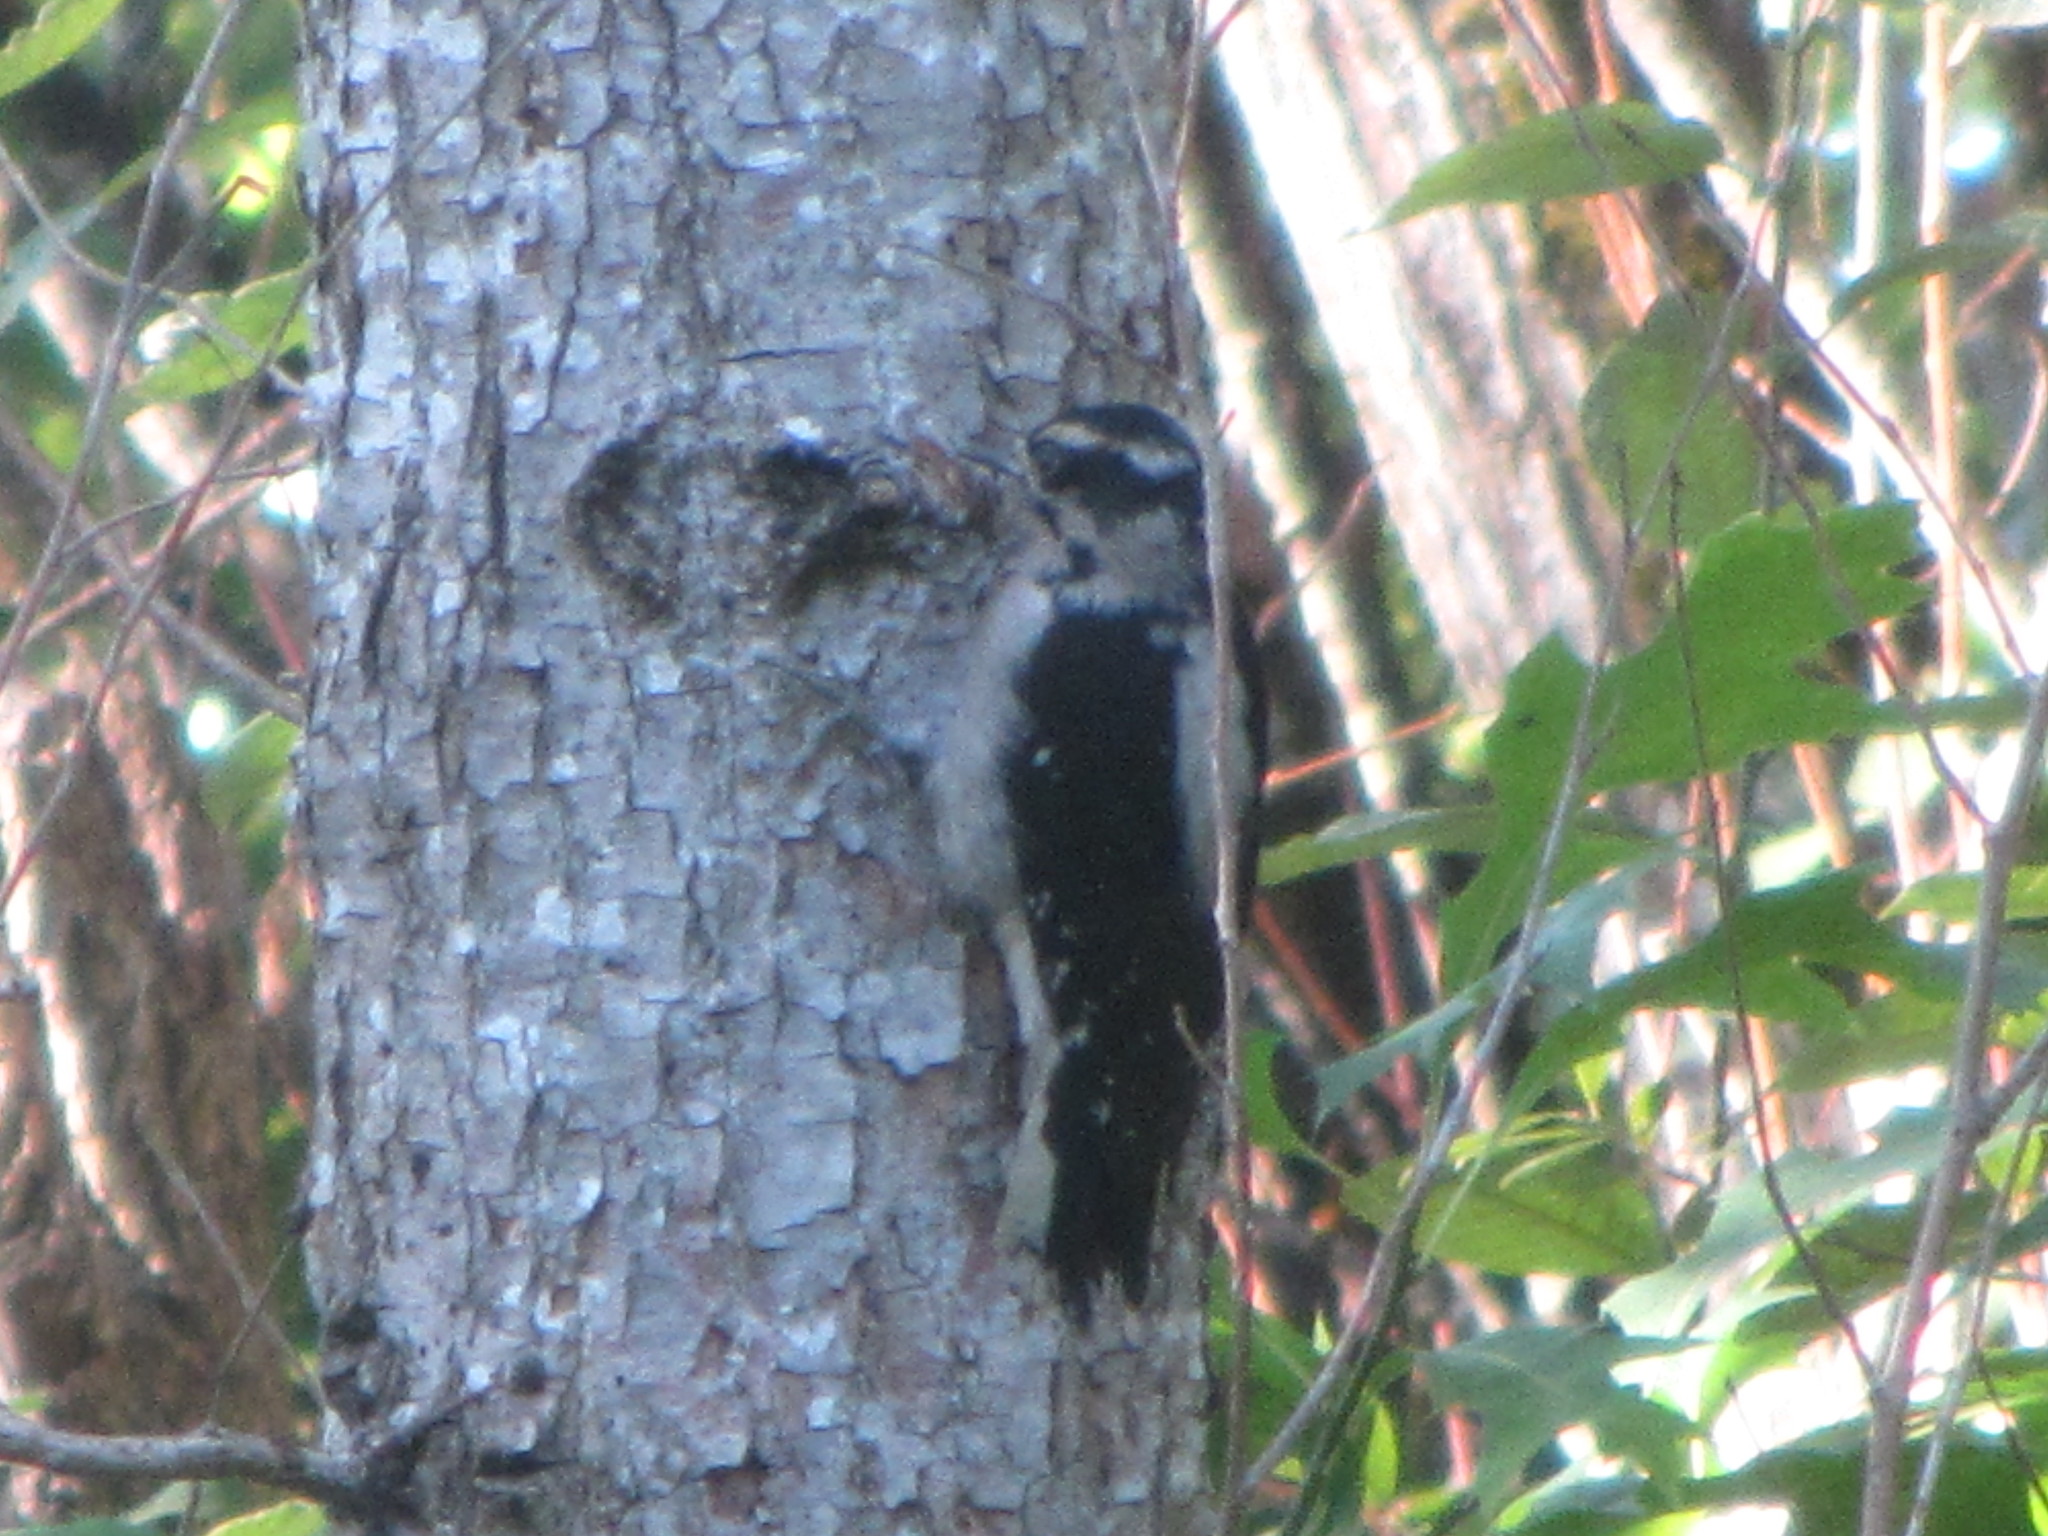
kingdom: Animalia
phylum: Chordata
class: Aves
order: Piciformes
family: Picidae
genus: Dryobates
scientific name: Dryobates pubescens
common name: Downy woodpecker
